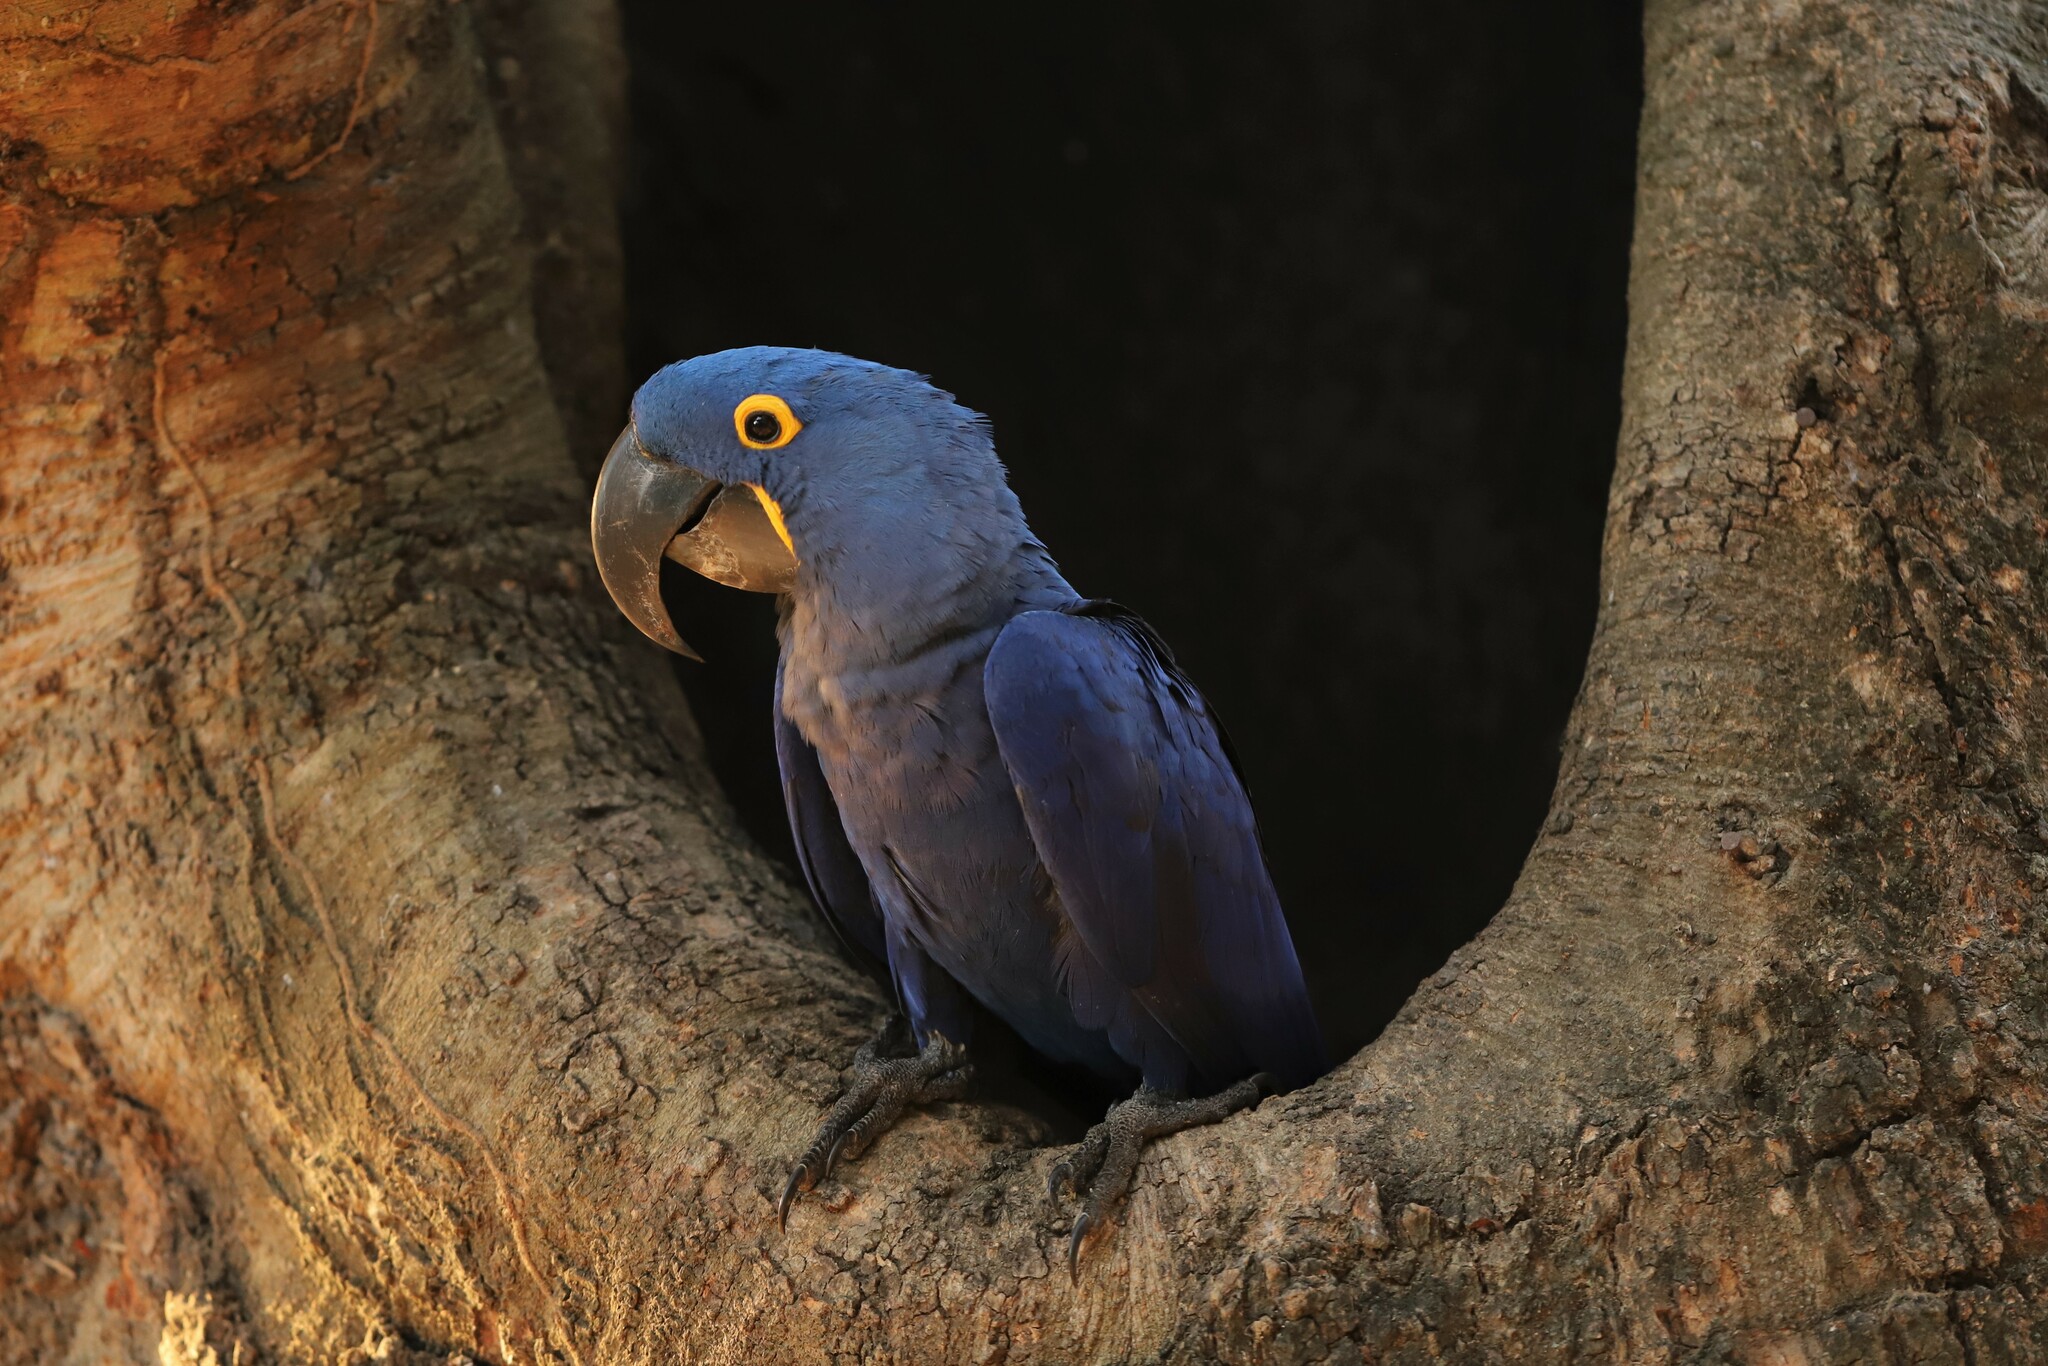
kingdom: Animalia
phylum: Chordata
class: Aves
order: Psittaciformes
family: Psittacidae
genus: Anodorhynchus
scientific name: Anodorhynchus hyacinthinus
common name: Hyacinth macaw
